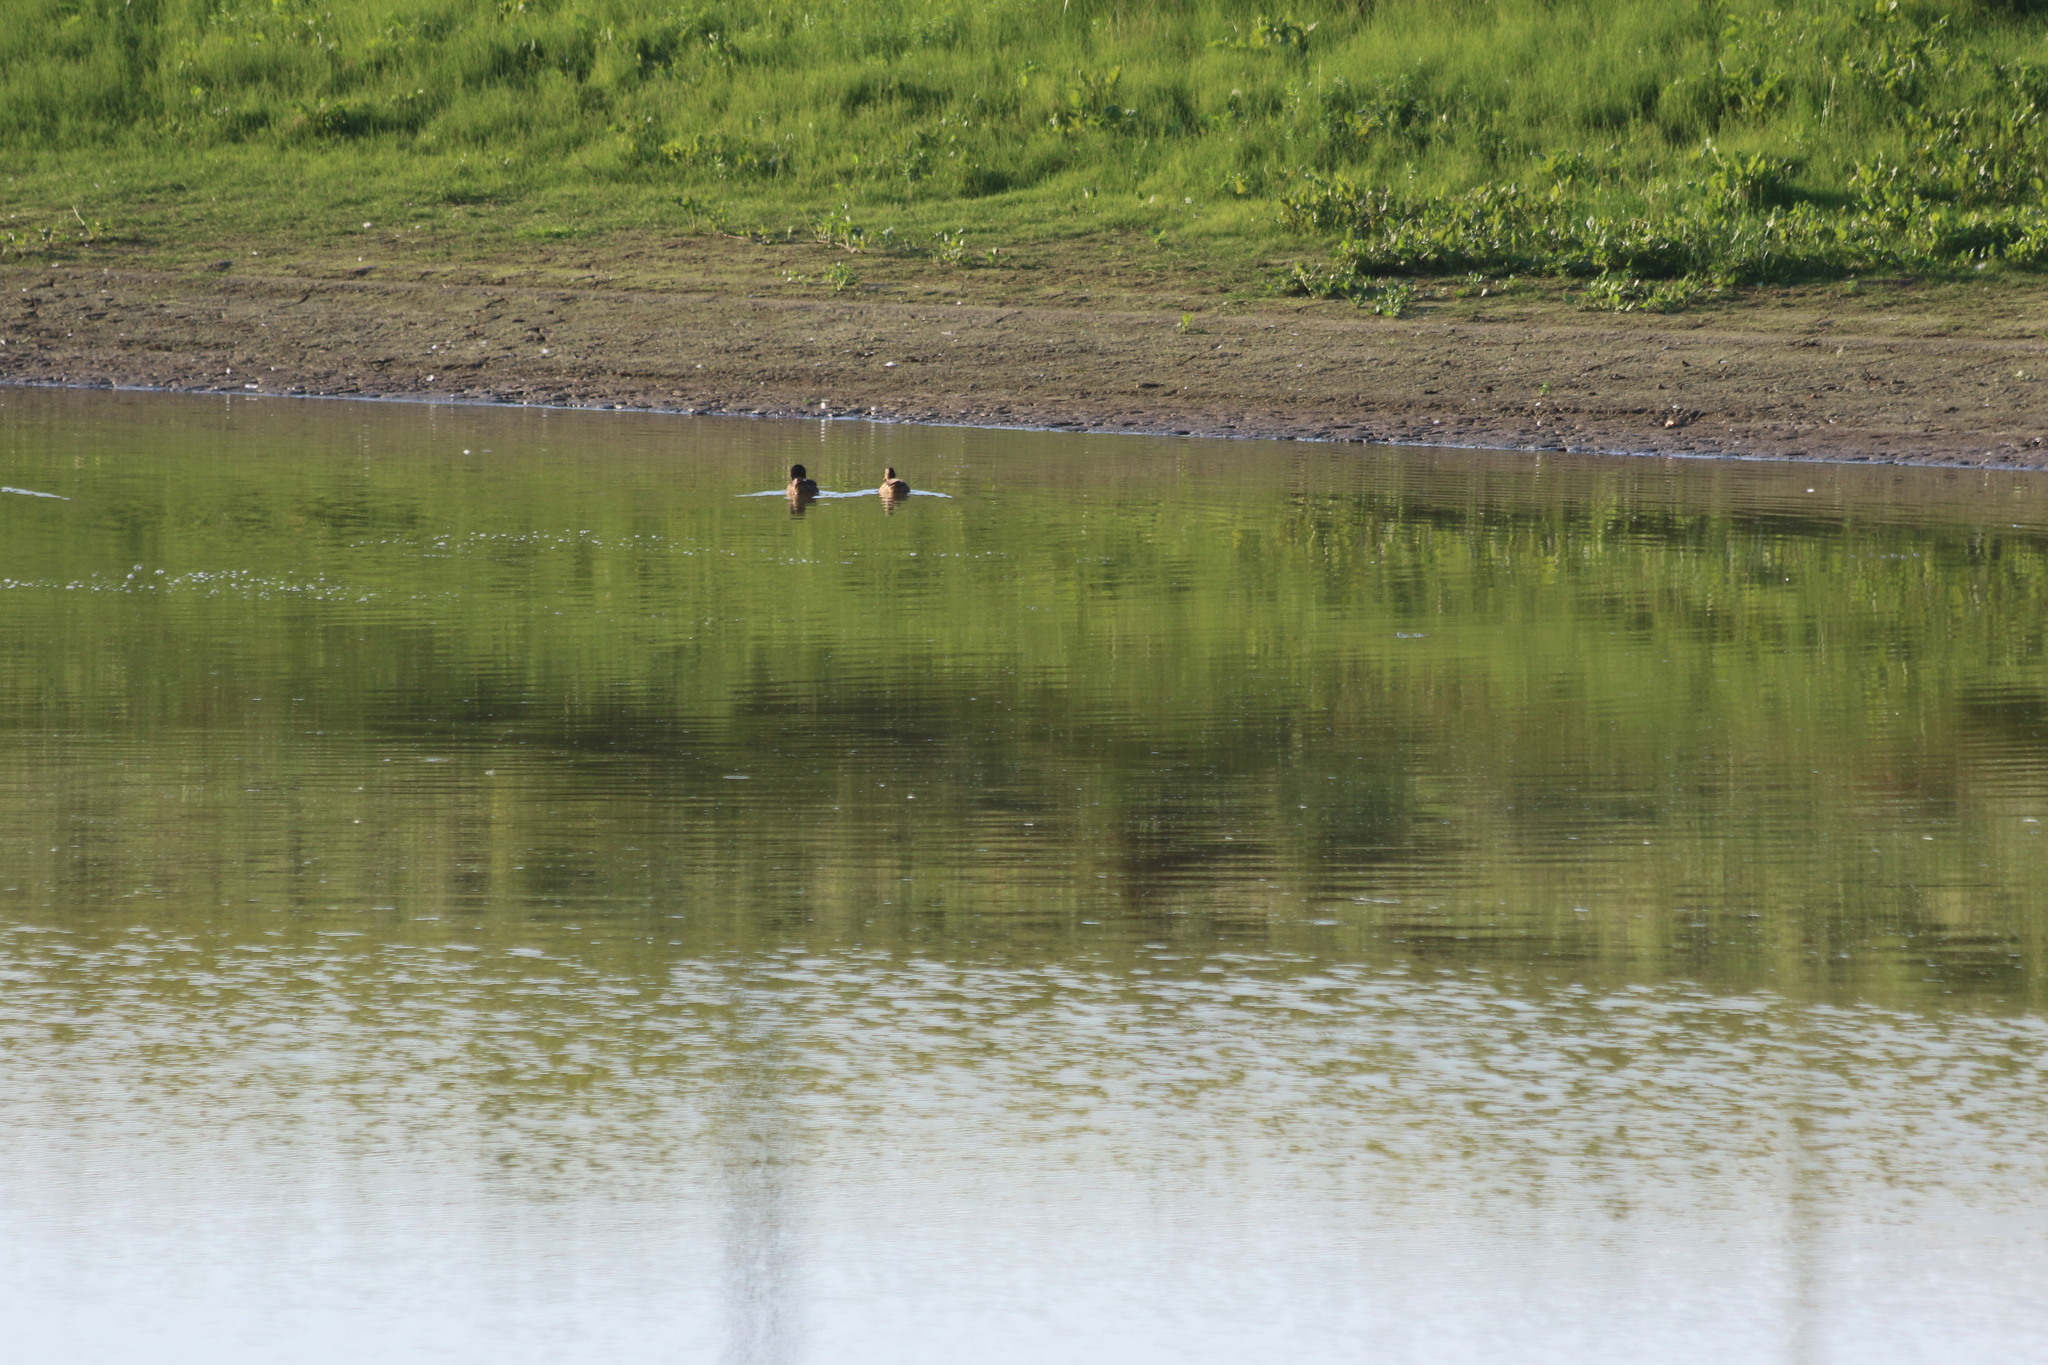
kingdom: Animalia
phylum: Chordata
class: Aves
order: Anseriformes
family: Anatidae
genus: Anas
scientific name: Anas platyrhynchos
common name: Mallard
